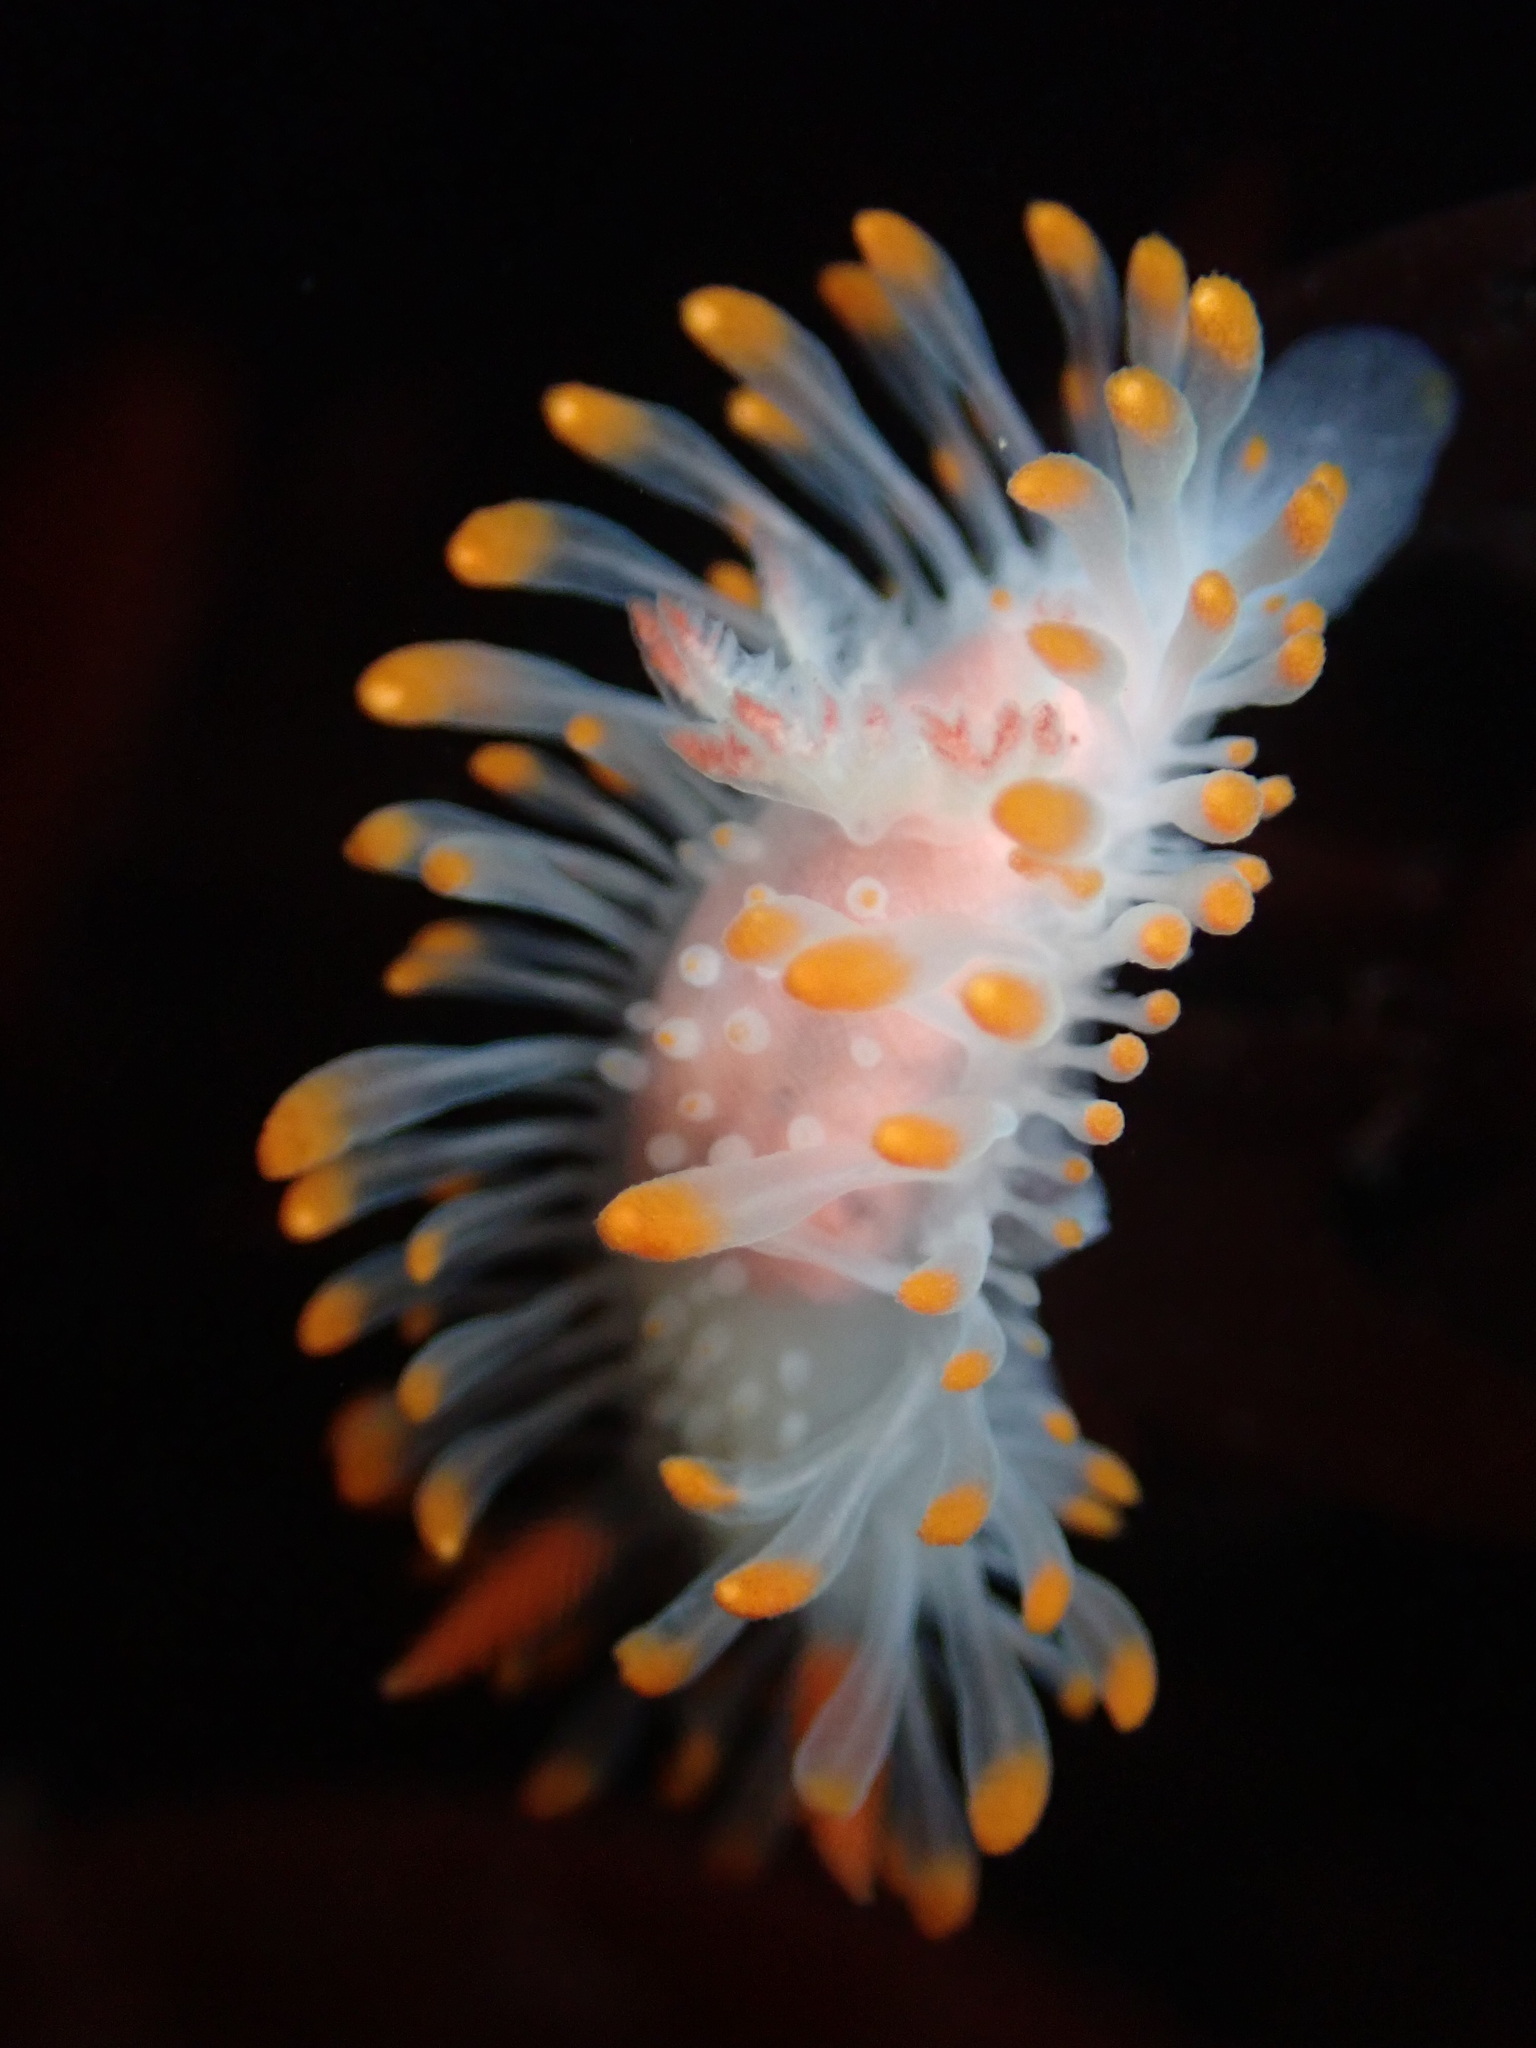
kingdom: Animalia
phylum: Mollusca
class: Gastropoda
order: Nudibranchia
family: Polyceridae
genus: Limacia
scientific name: Limacia cockerelli
